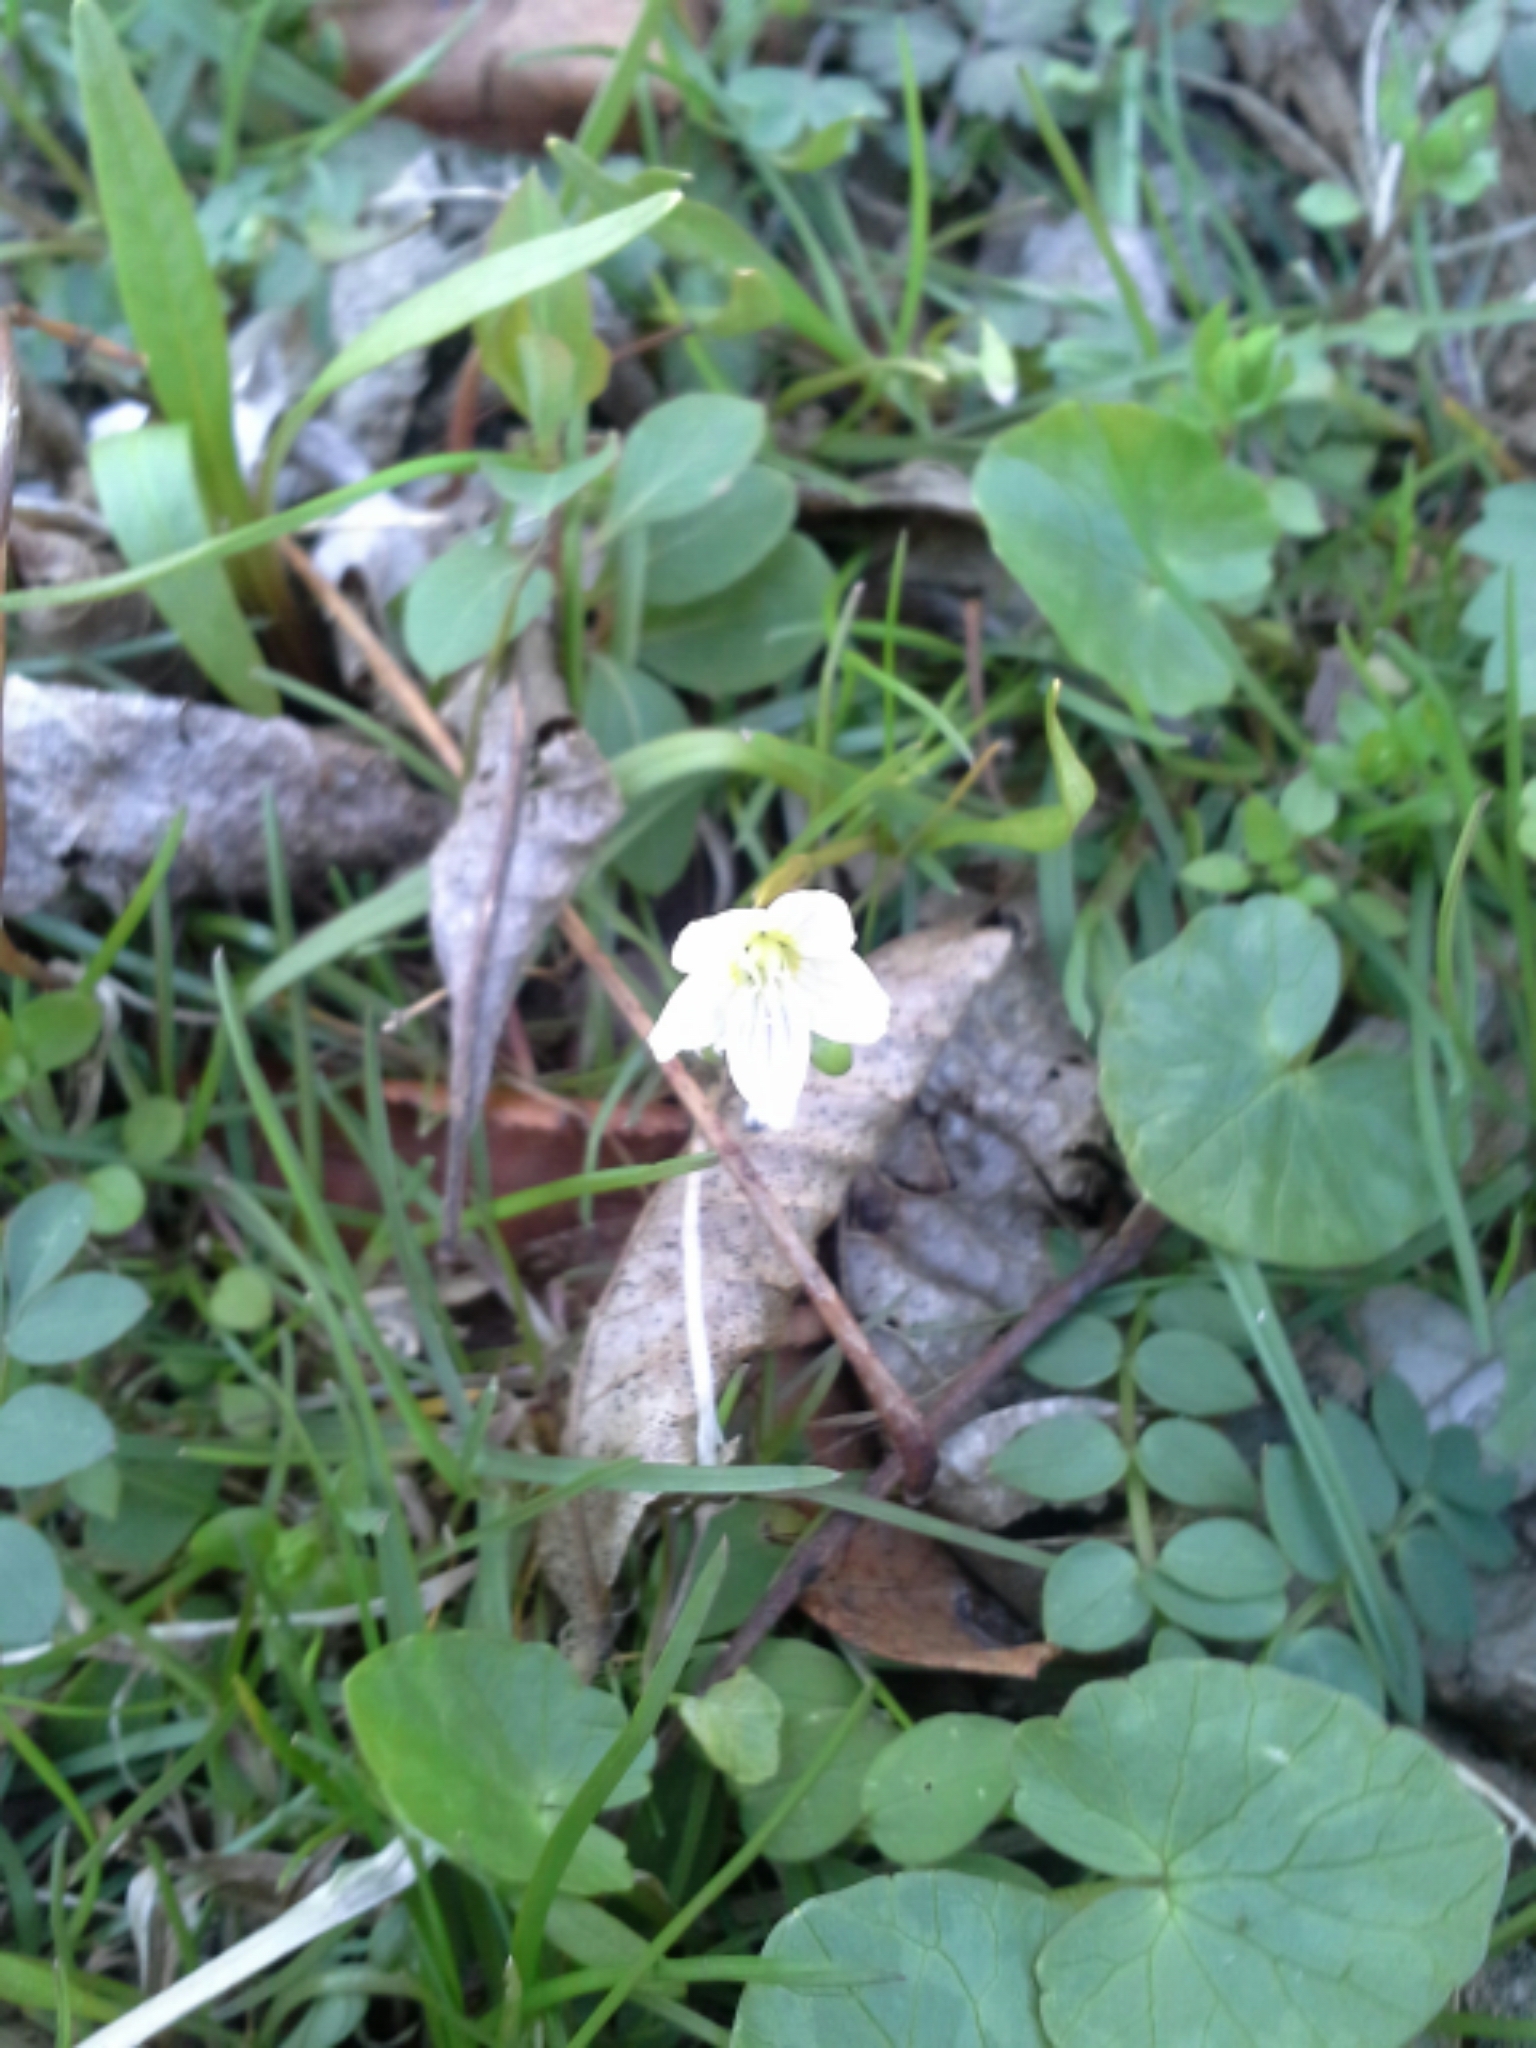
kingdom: Plantae
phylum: Tracheophyta
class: Magnoliopsida
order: Caryophyllales
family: Montiaceae
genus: Claytonia
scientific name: Claytonia virginica
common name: Virginia springbeauty
